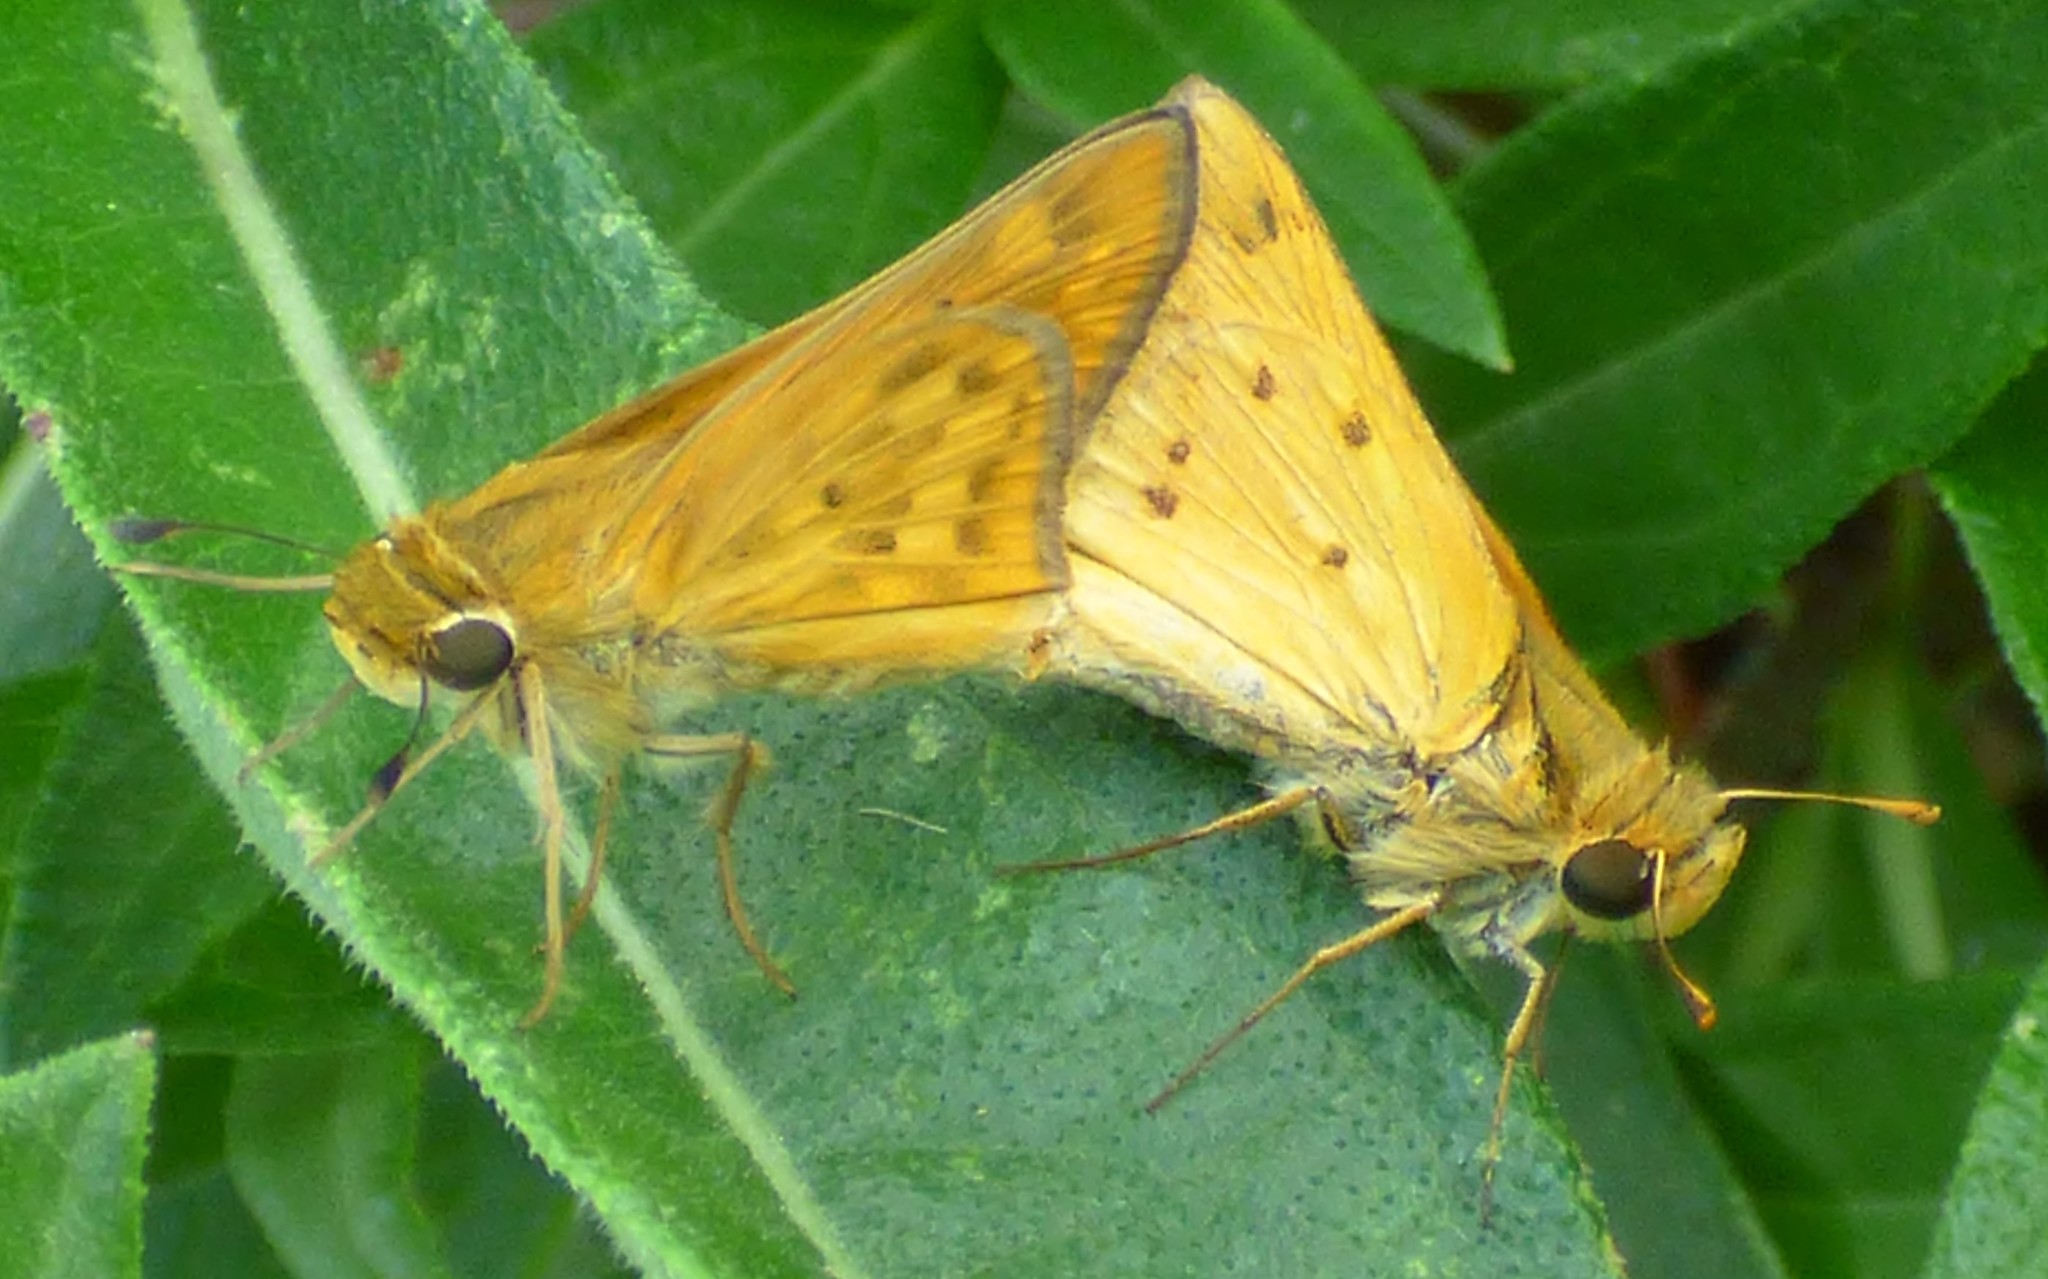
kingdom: Animalia
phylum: Arthropoda
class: Insecta
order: Lepidoptera
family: Hesperiidae
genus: Hylephila
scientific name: Hylephila phyleus
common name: Fiery skipper
